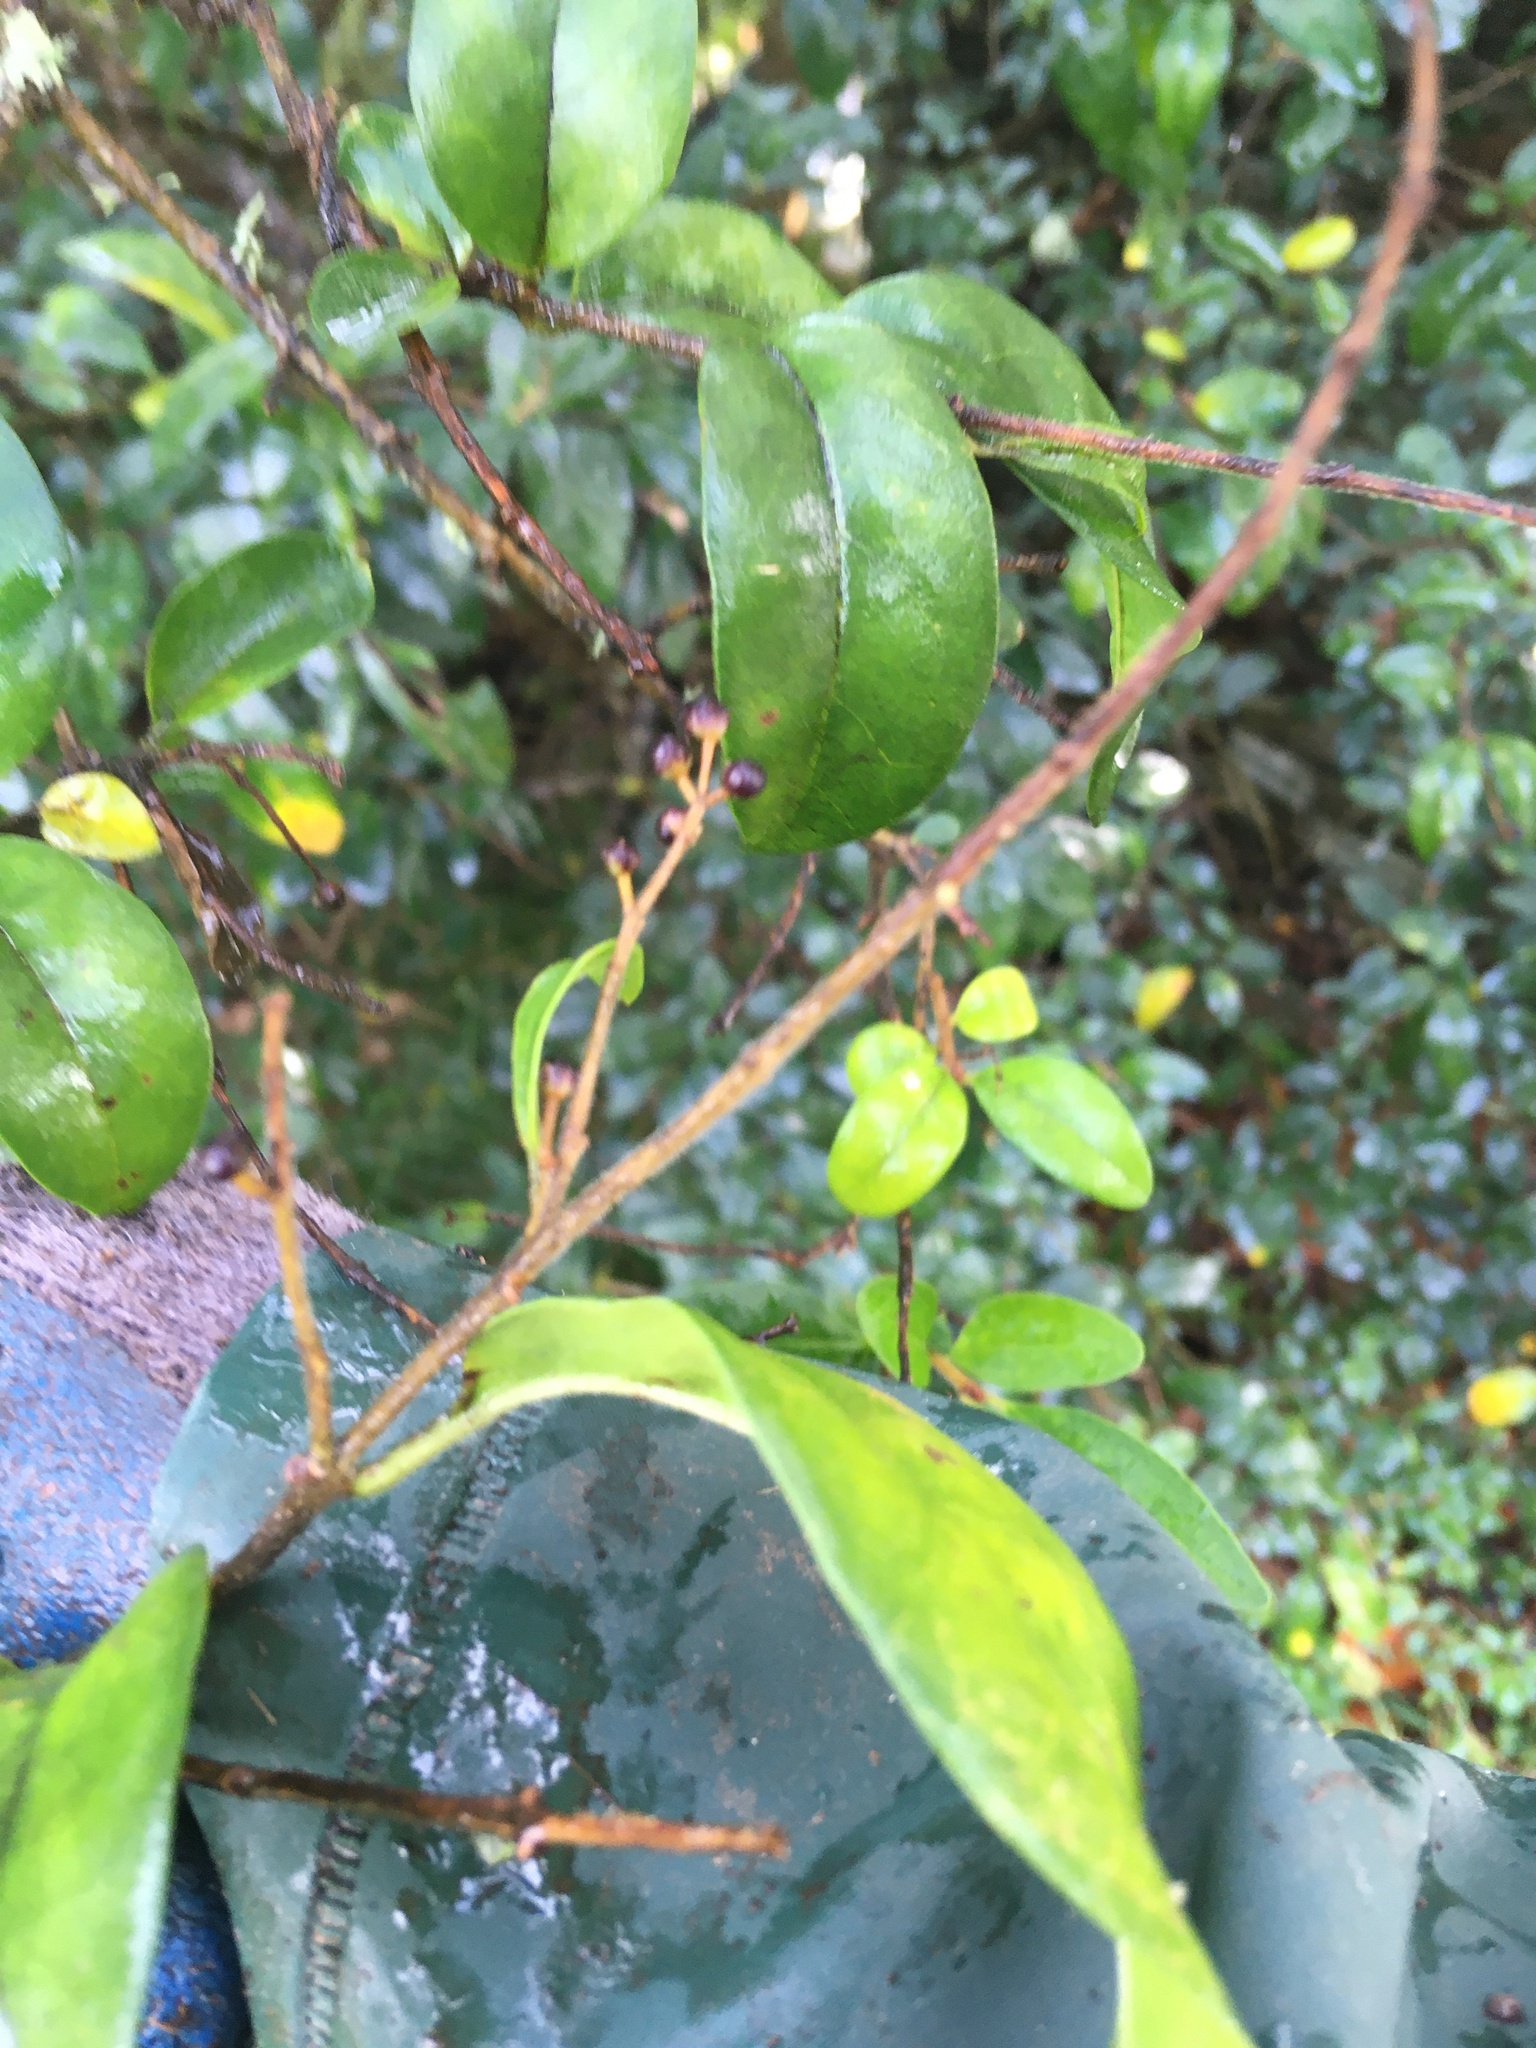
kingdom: Plantae
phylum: Tracheophyta
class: Magnoliopsida
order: Lamiales
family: Oleaceae
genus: Ligustrum
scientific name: Ligustrum sinense
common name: Chinese privet
